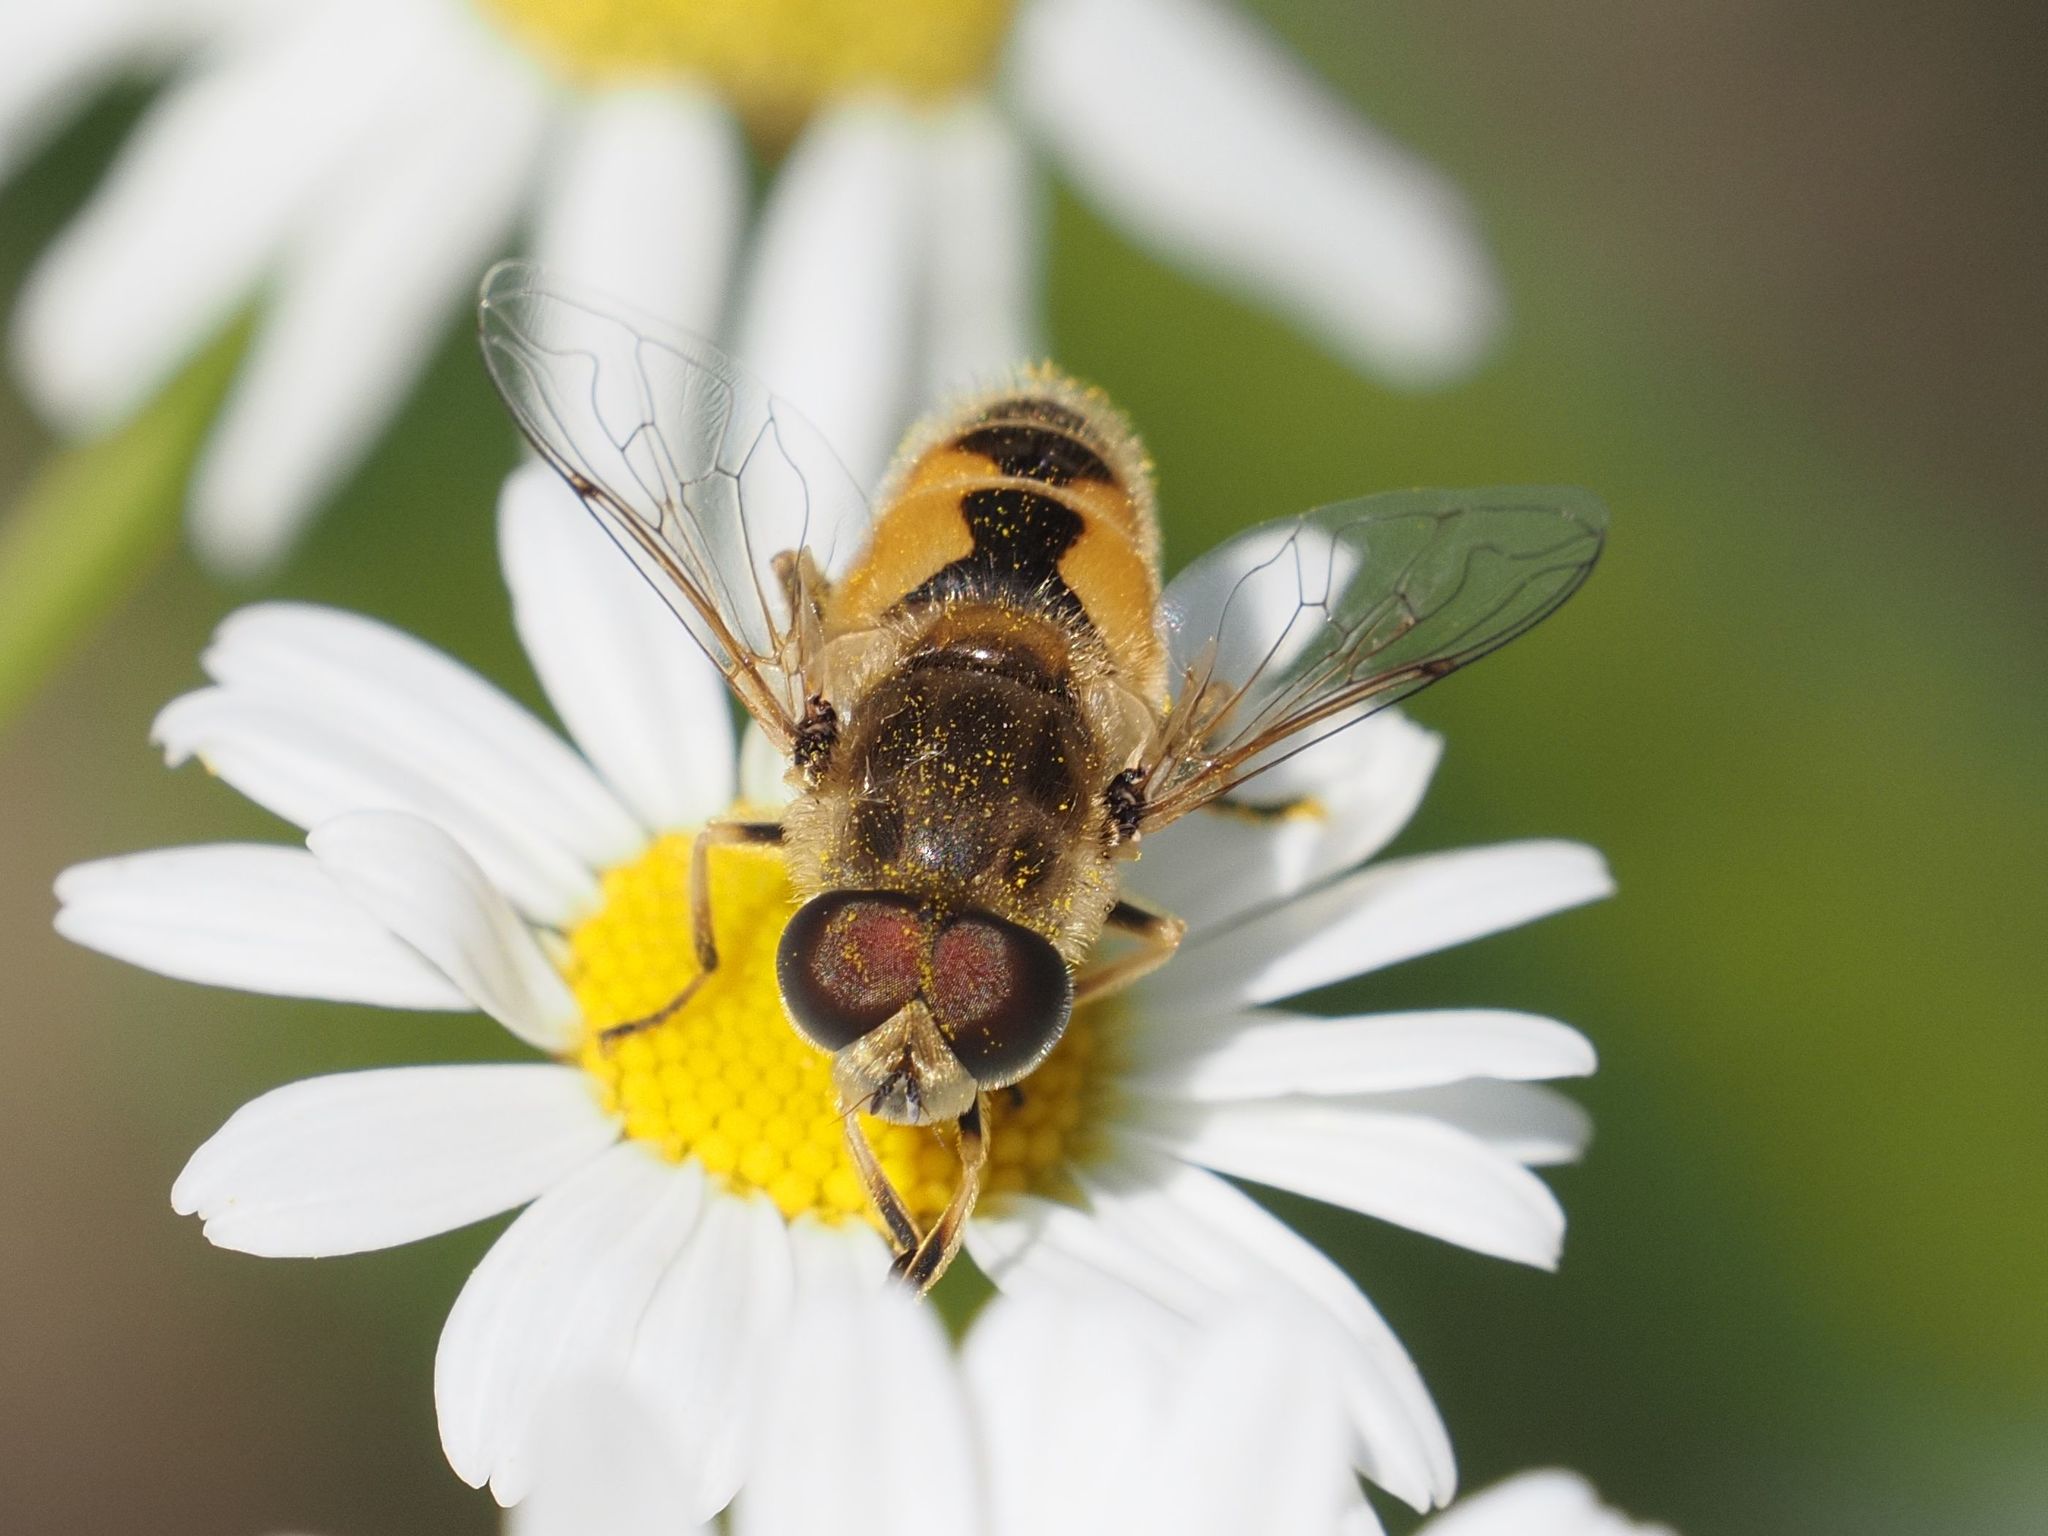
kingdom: Animalia
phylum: Arthropoda
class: Insecta
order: Diptera
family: Syrphidae
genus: Eristalis
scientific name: Eristalis arbustorum
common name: Hover fly
